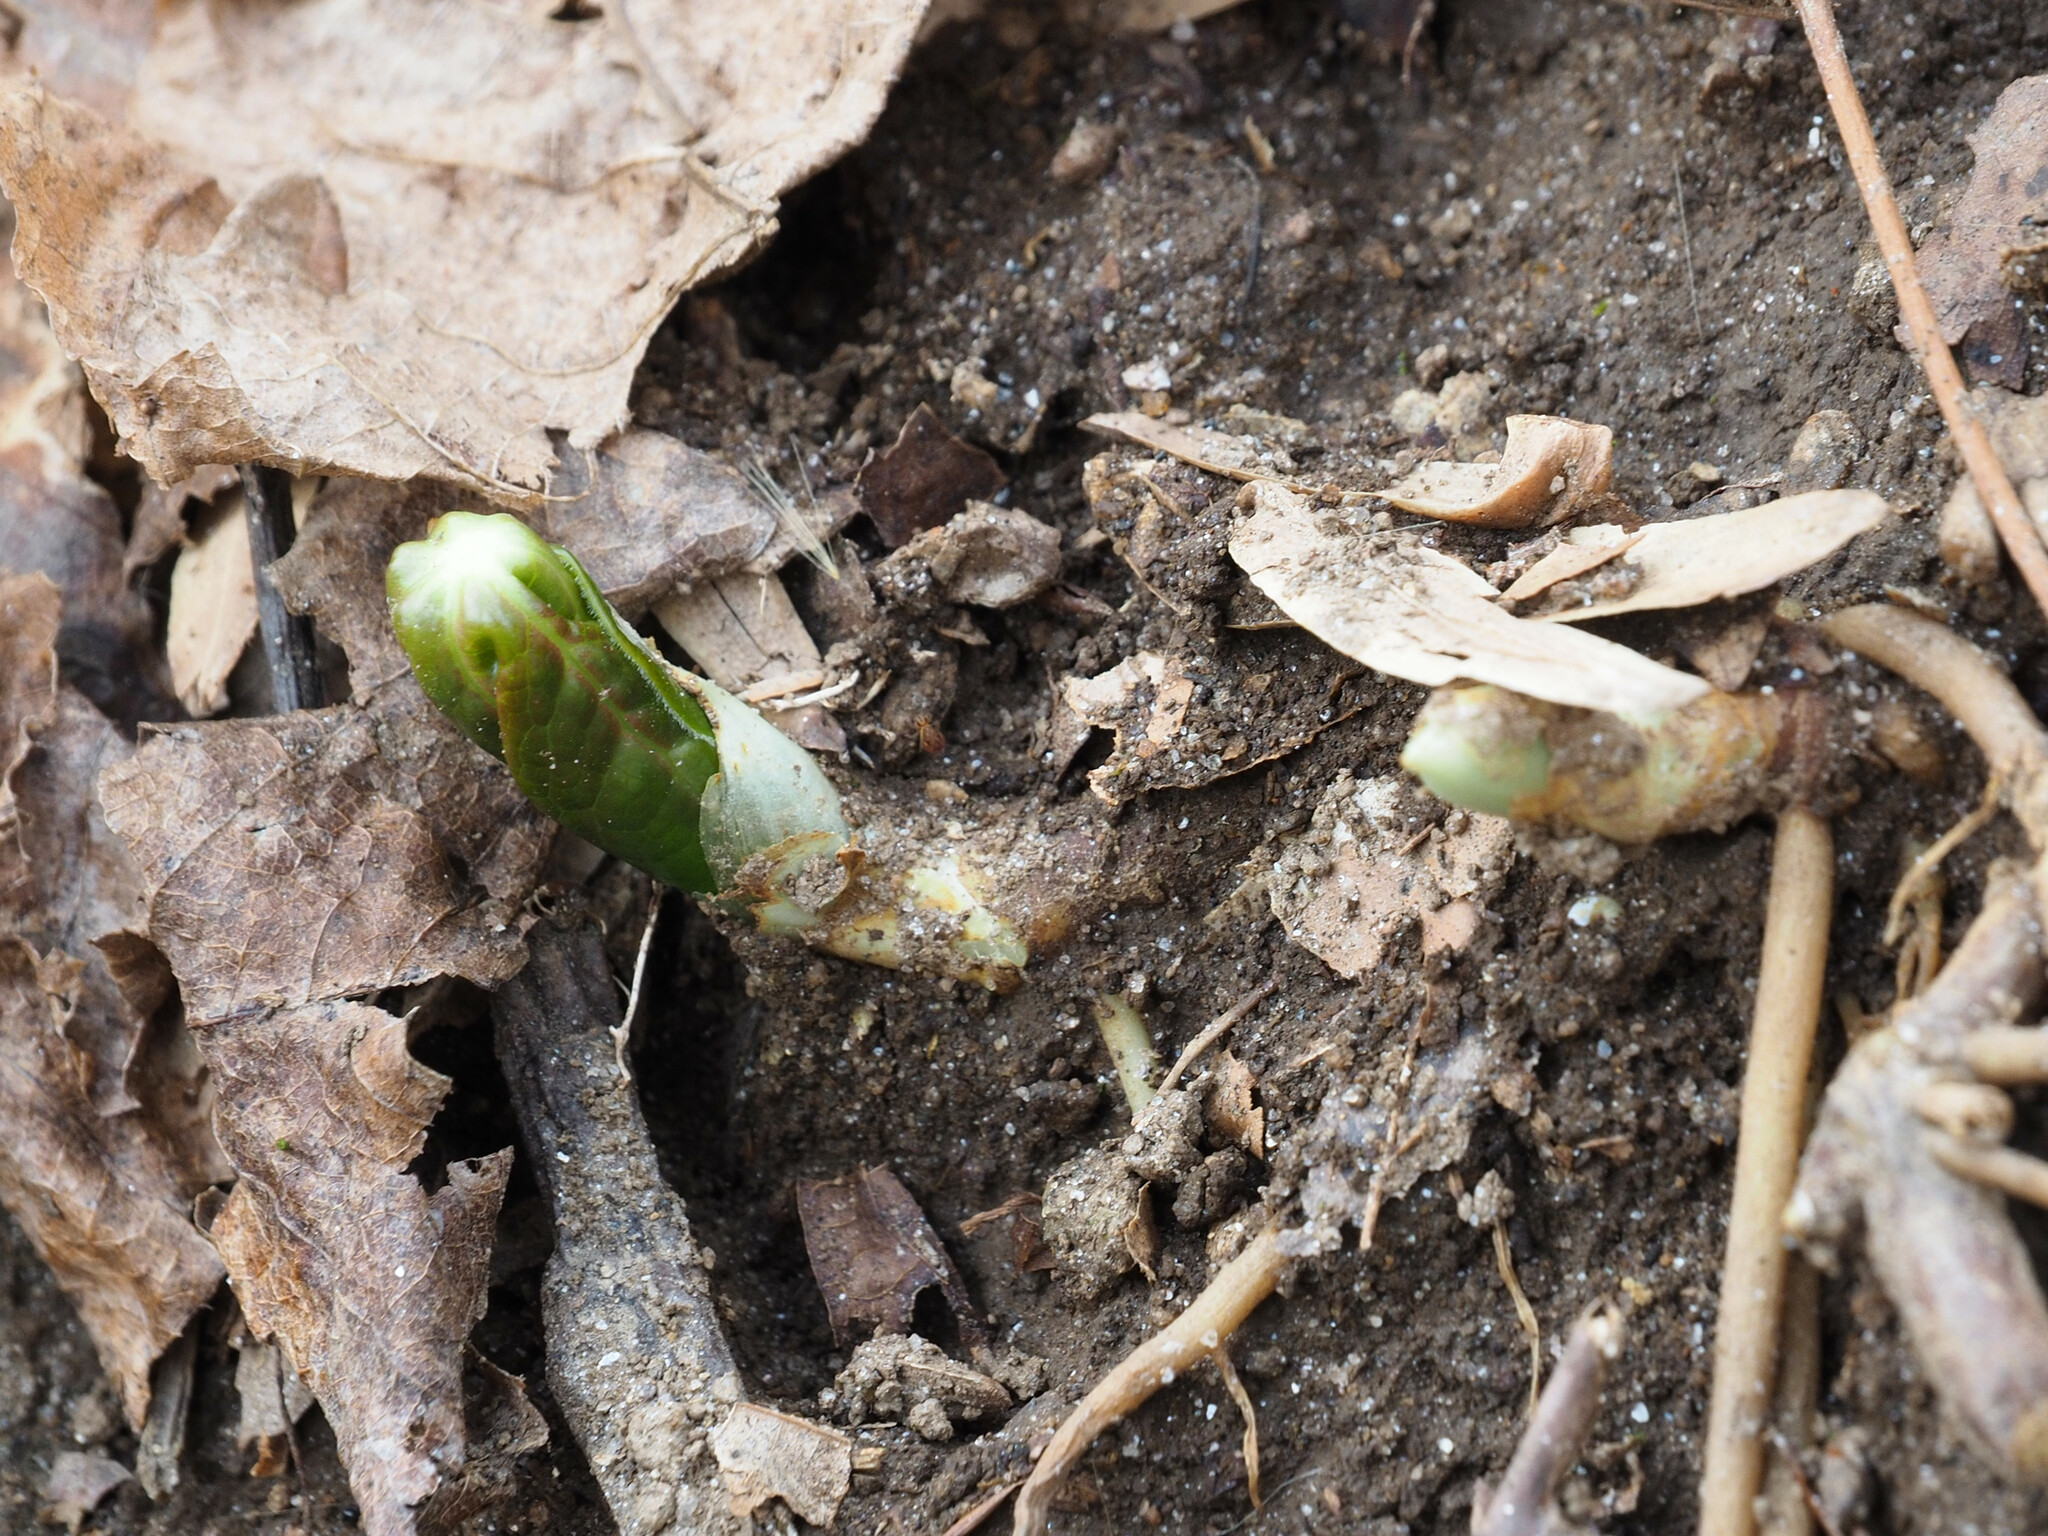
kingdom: Plantae
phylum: Tracheophyta
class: Magnoliopsida
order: Ranunculales
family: Berberidaceae
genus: Podophyllum
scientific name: Podophyllum peltatum
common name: Wild mandrake
